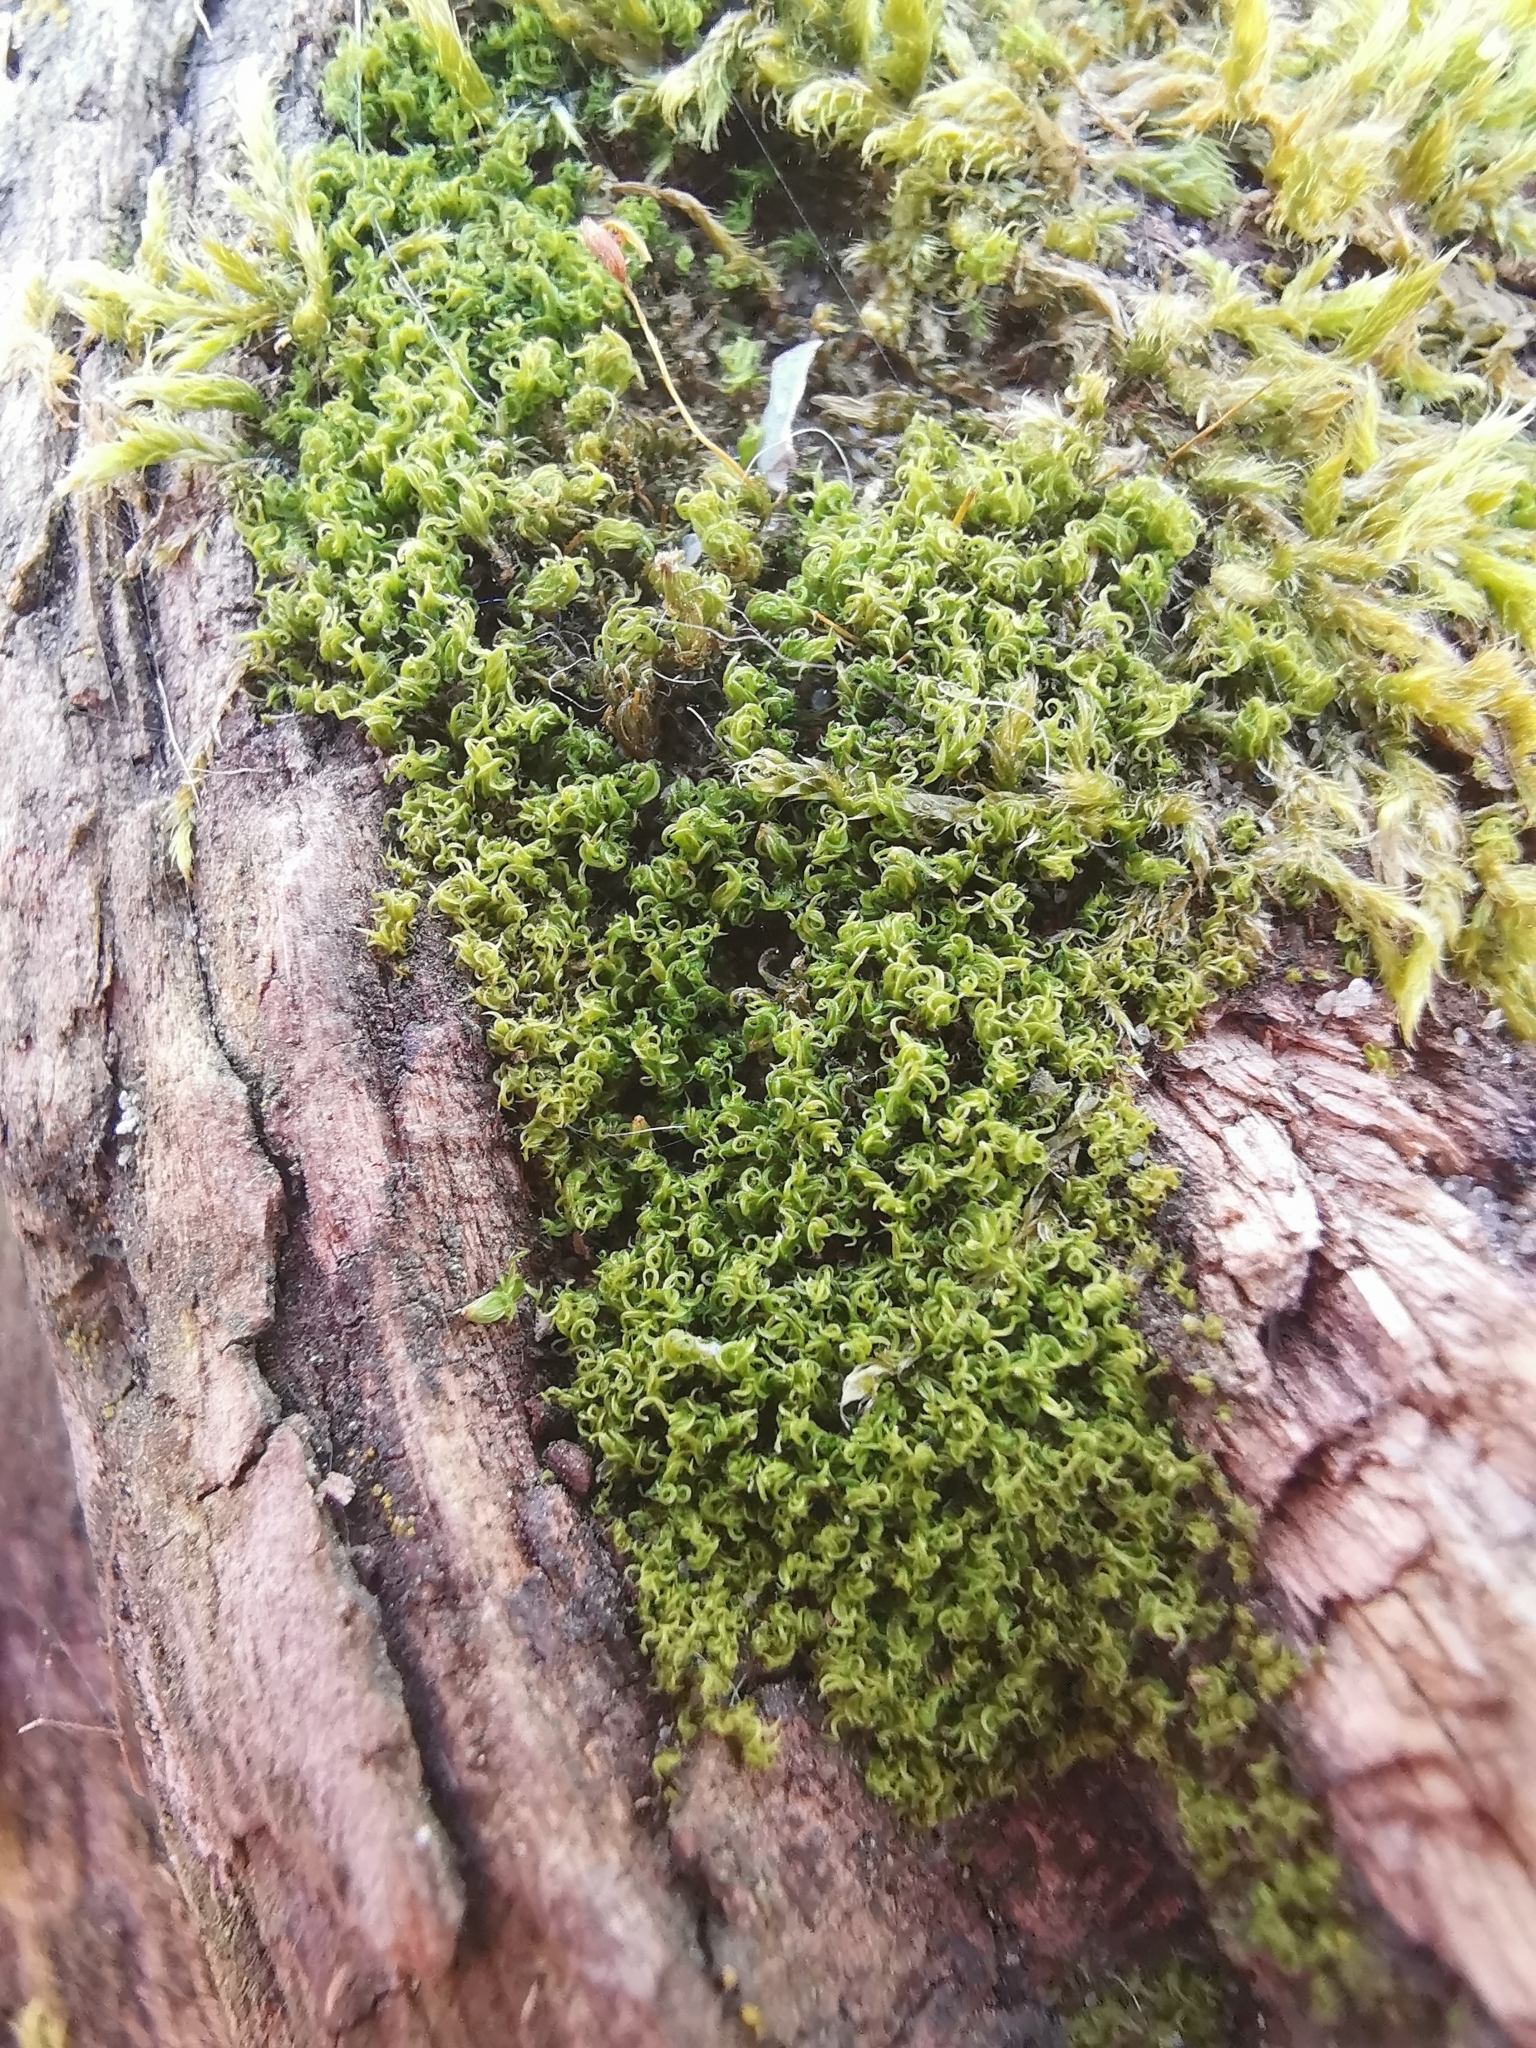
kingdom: Plantae
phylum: Bryophyta
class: Bryopsida
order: Dicranales
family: Rhabdoweisiaceae
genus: Dicranoweisia
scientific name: Dicranoweisia cirrata
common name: Common pincushion
